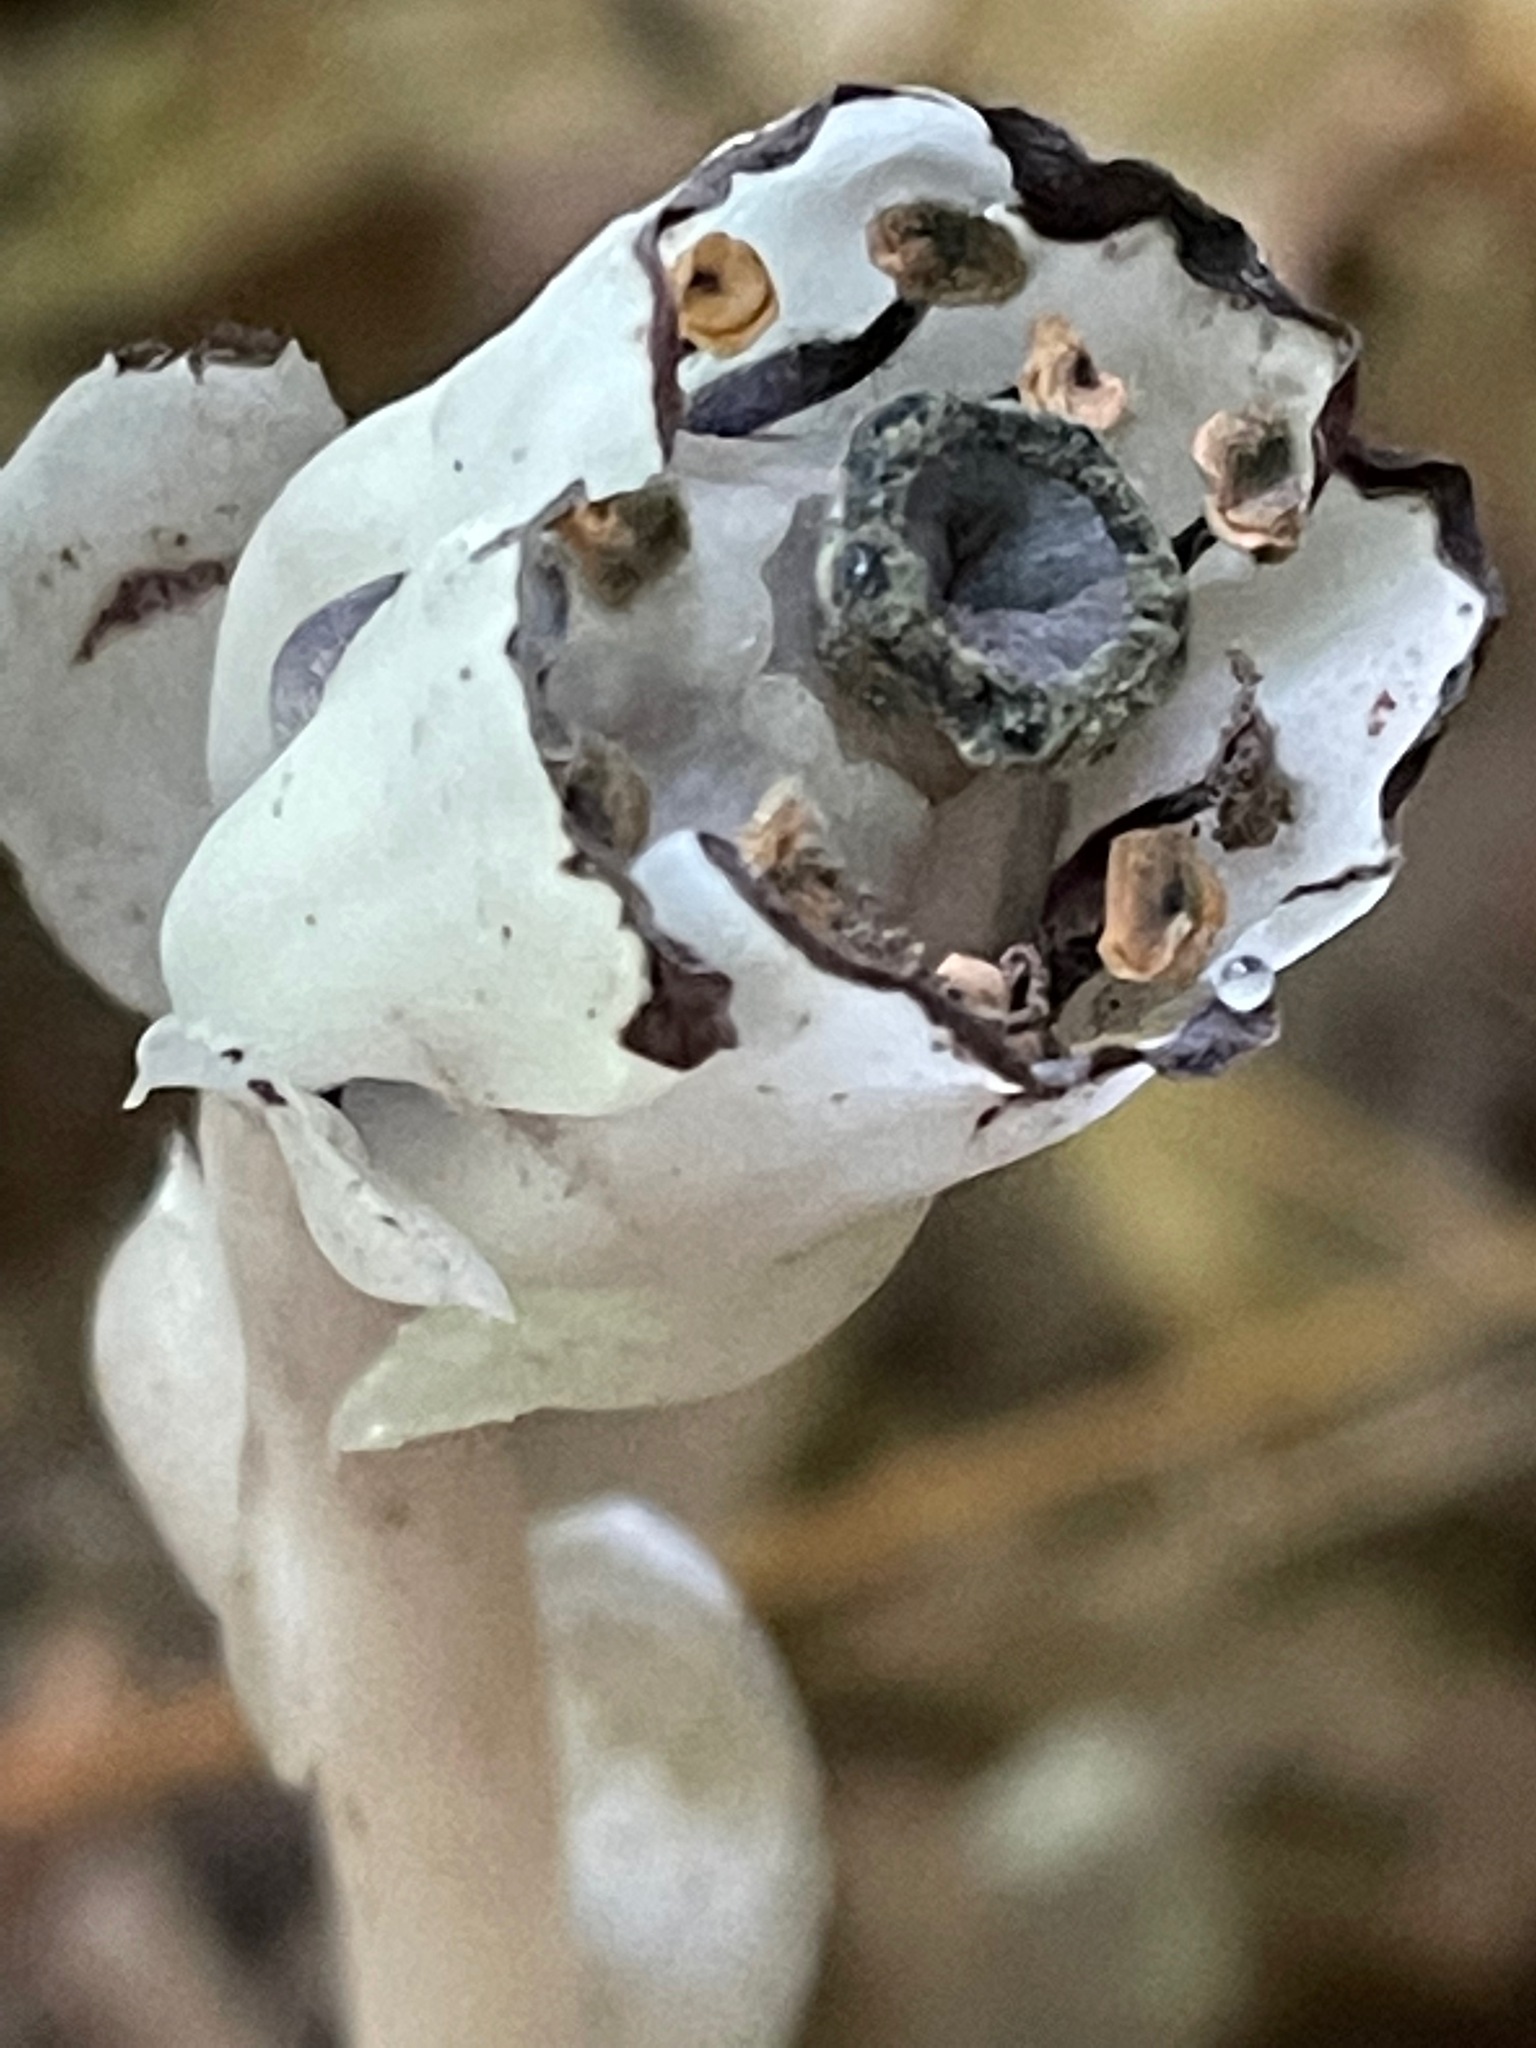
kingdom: Plantae
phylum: Tracheophyta
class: Magnoliopsida
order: Ericales
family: Ericaceae
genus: Monotropa
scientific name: Monotropa uniflora
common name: Convulsion root
